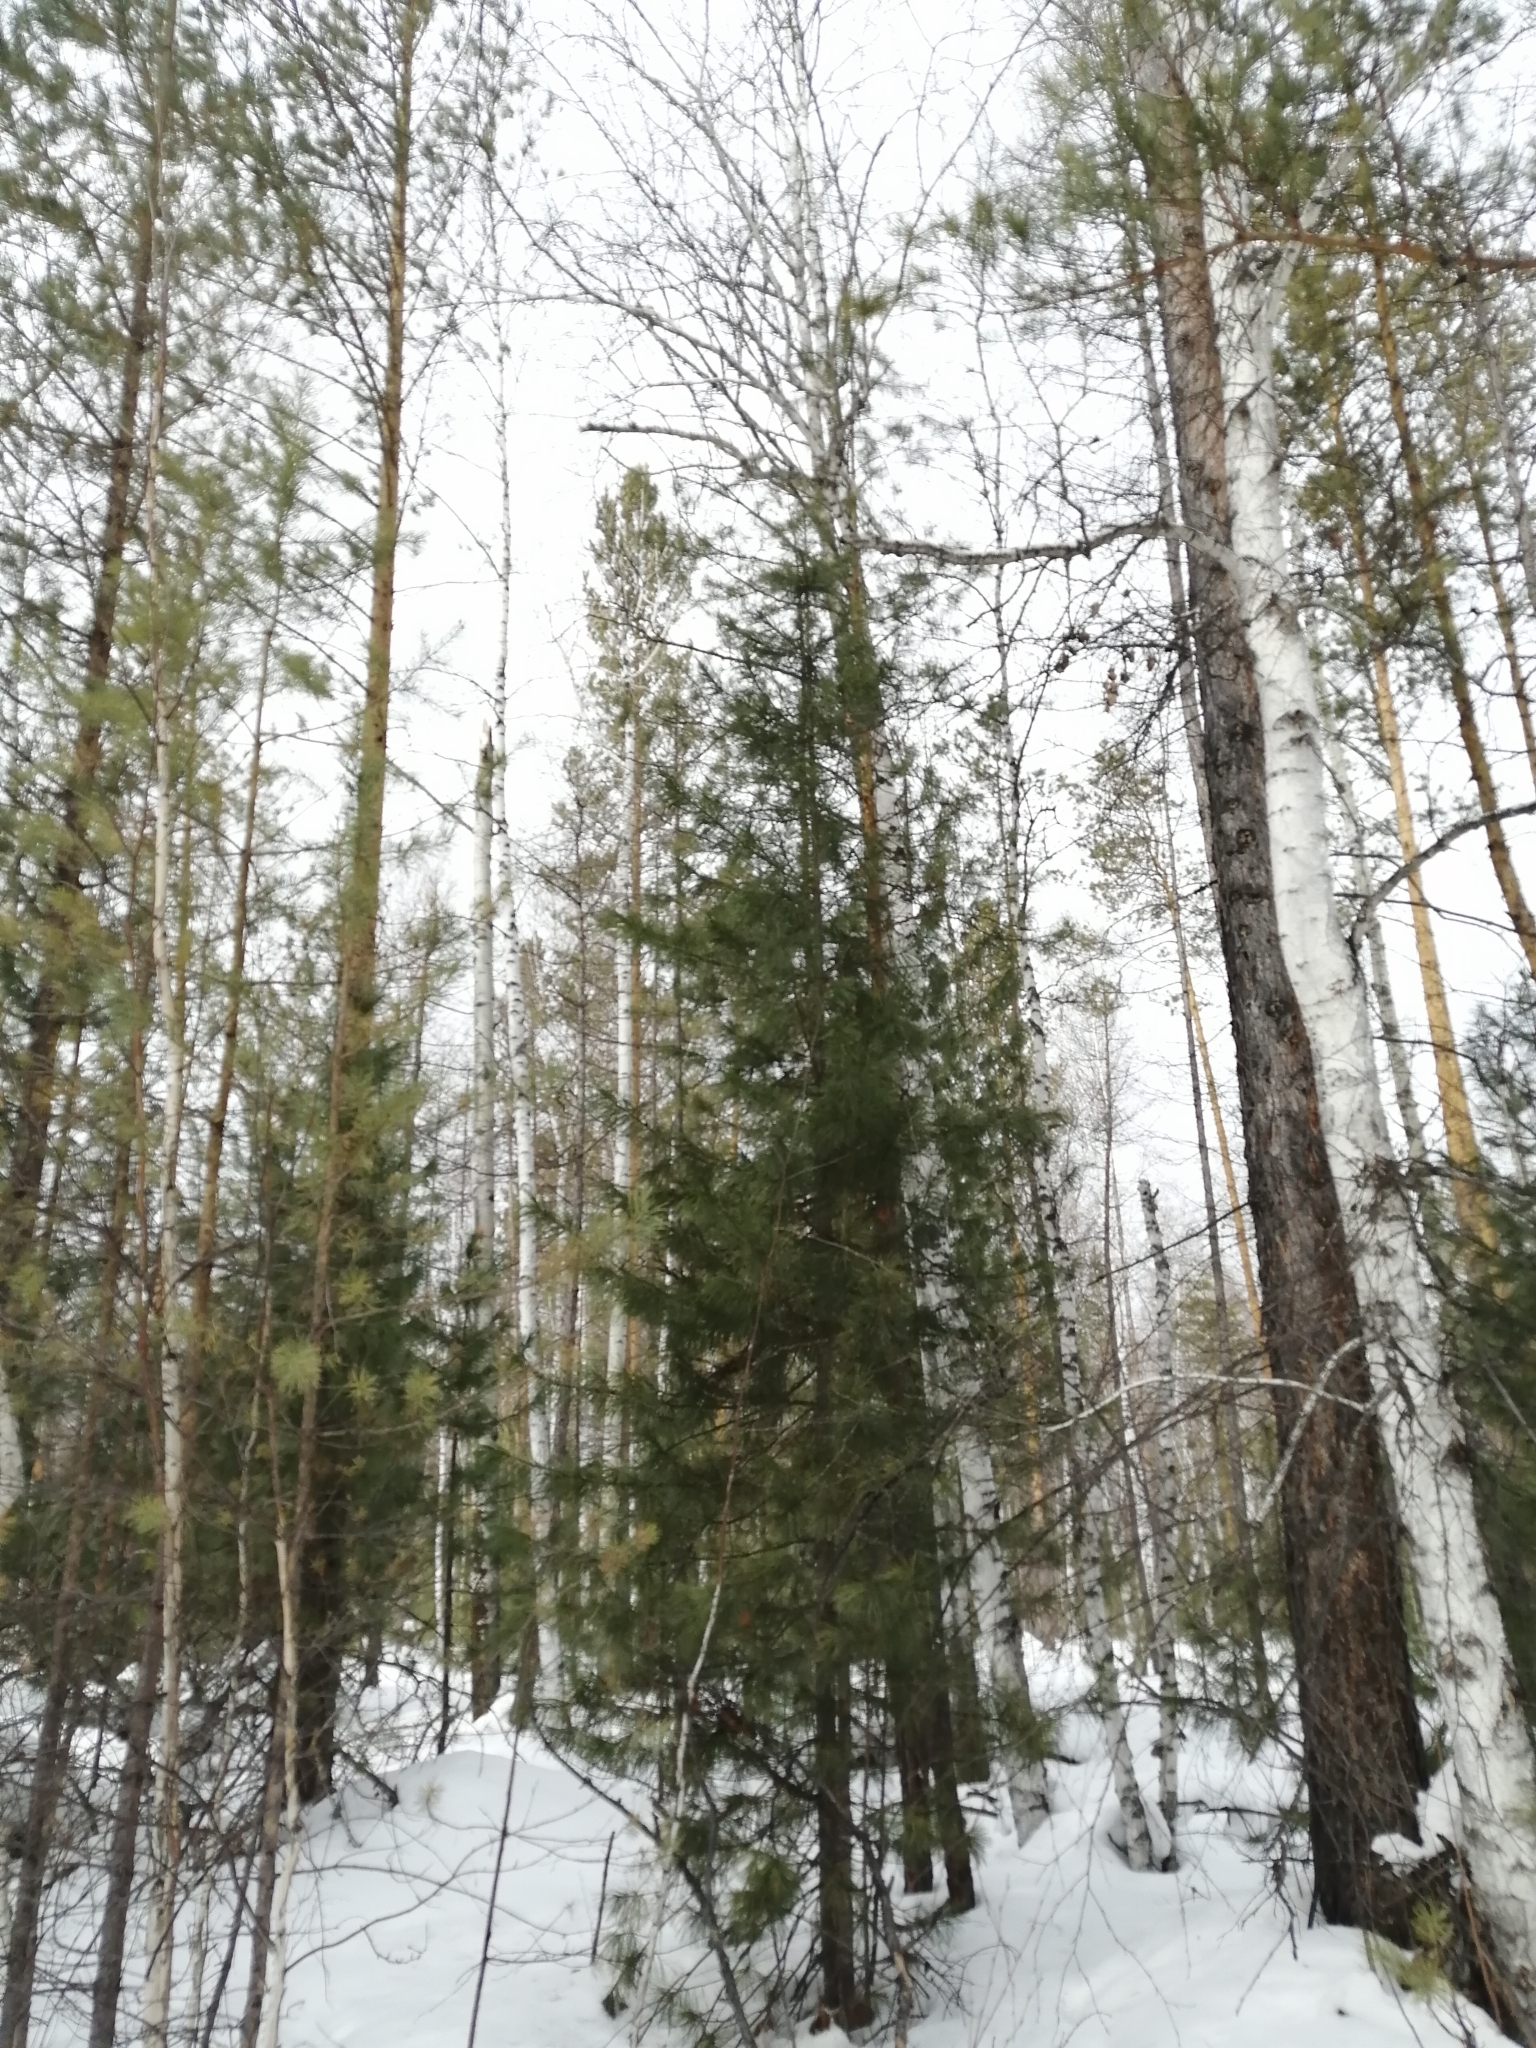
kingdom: Plantae
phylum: Tracheophyta
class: Pinopsida
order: Pinales
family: Pinaceae
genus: Pinus
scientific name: Pinus sibirica
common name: Siberian pine
